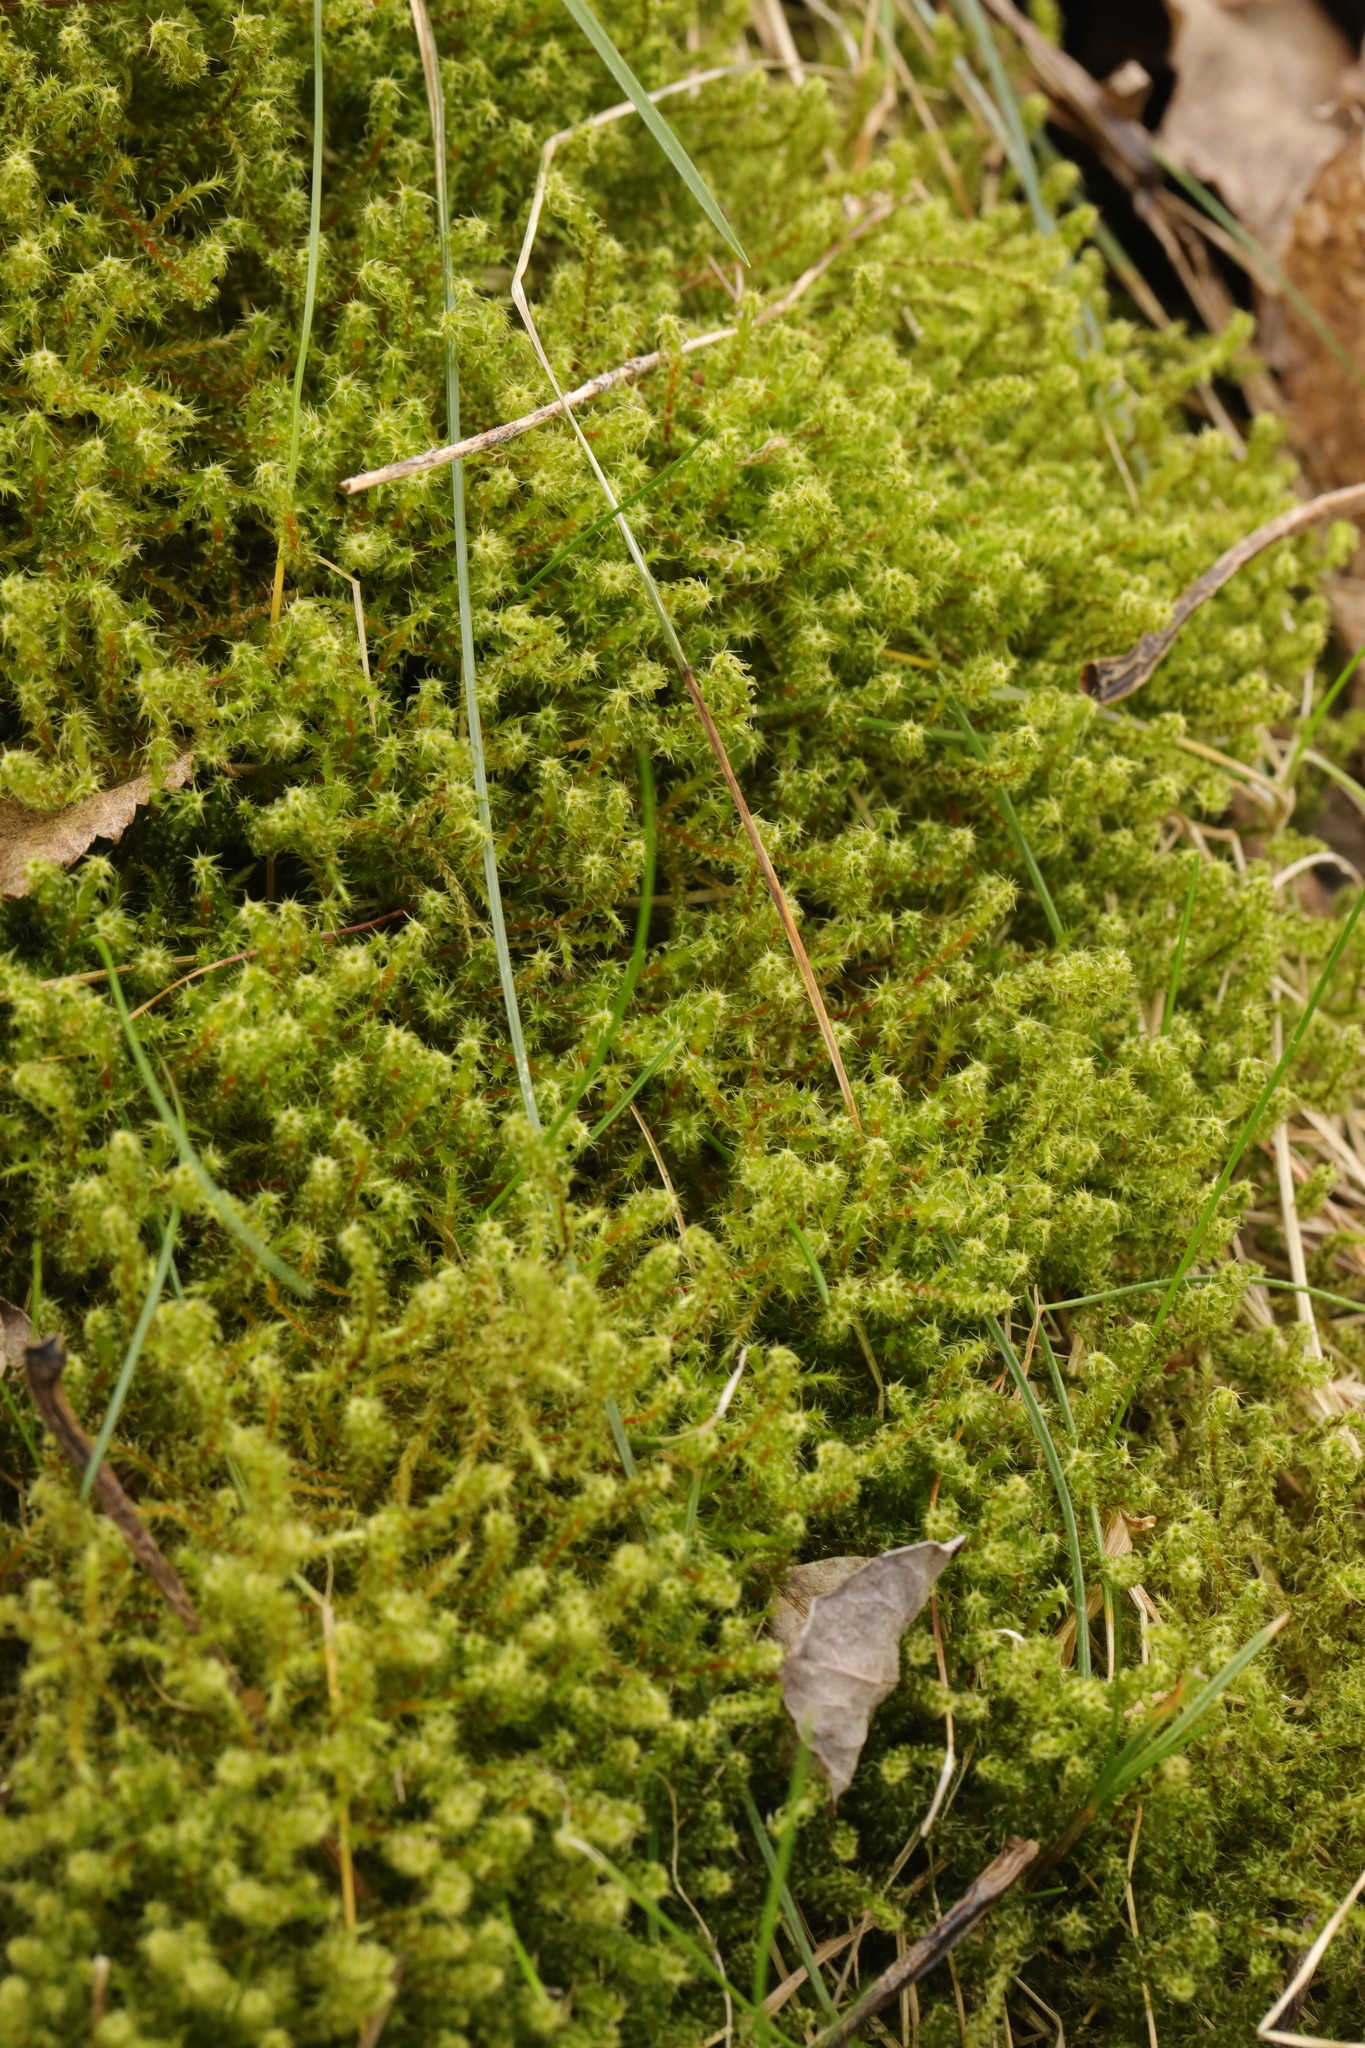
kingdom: Plantae
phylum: Bryophyta
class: Bryopsida
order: Hypnales
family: Hylocomiaceae
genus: Rhytidiadelphus
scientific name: Rhytidiadelphus squarrosus
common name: Springy turf-moss
